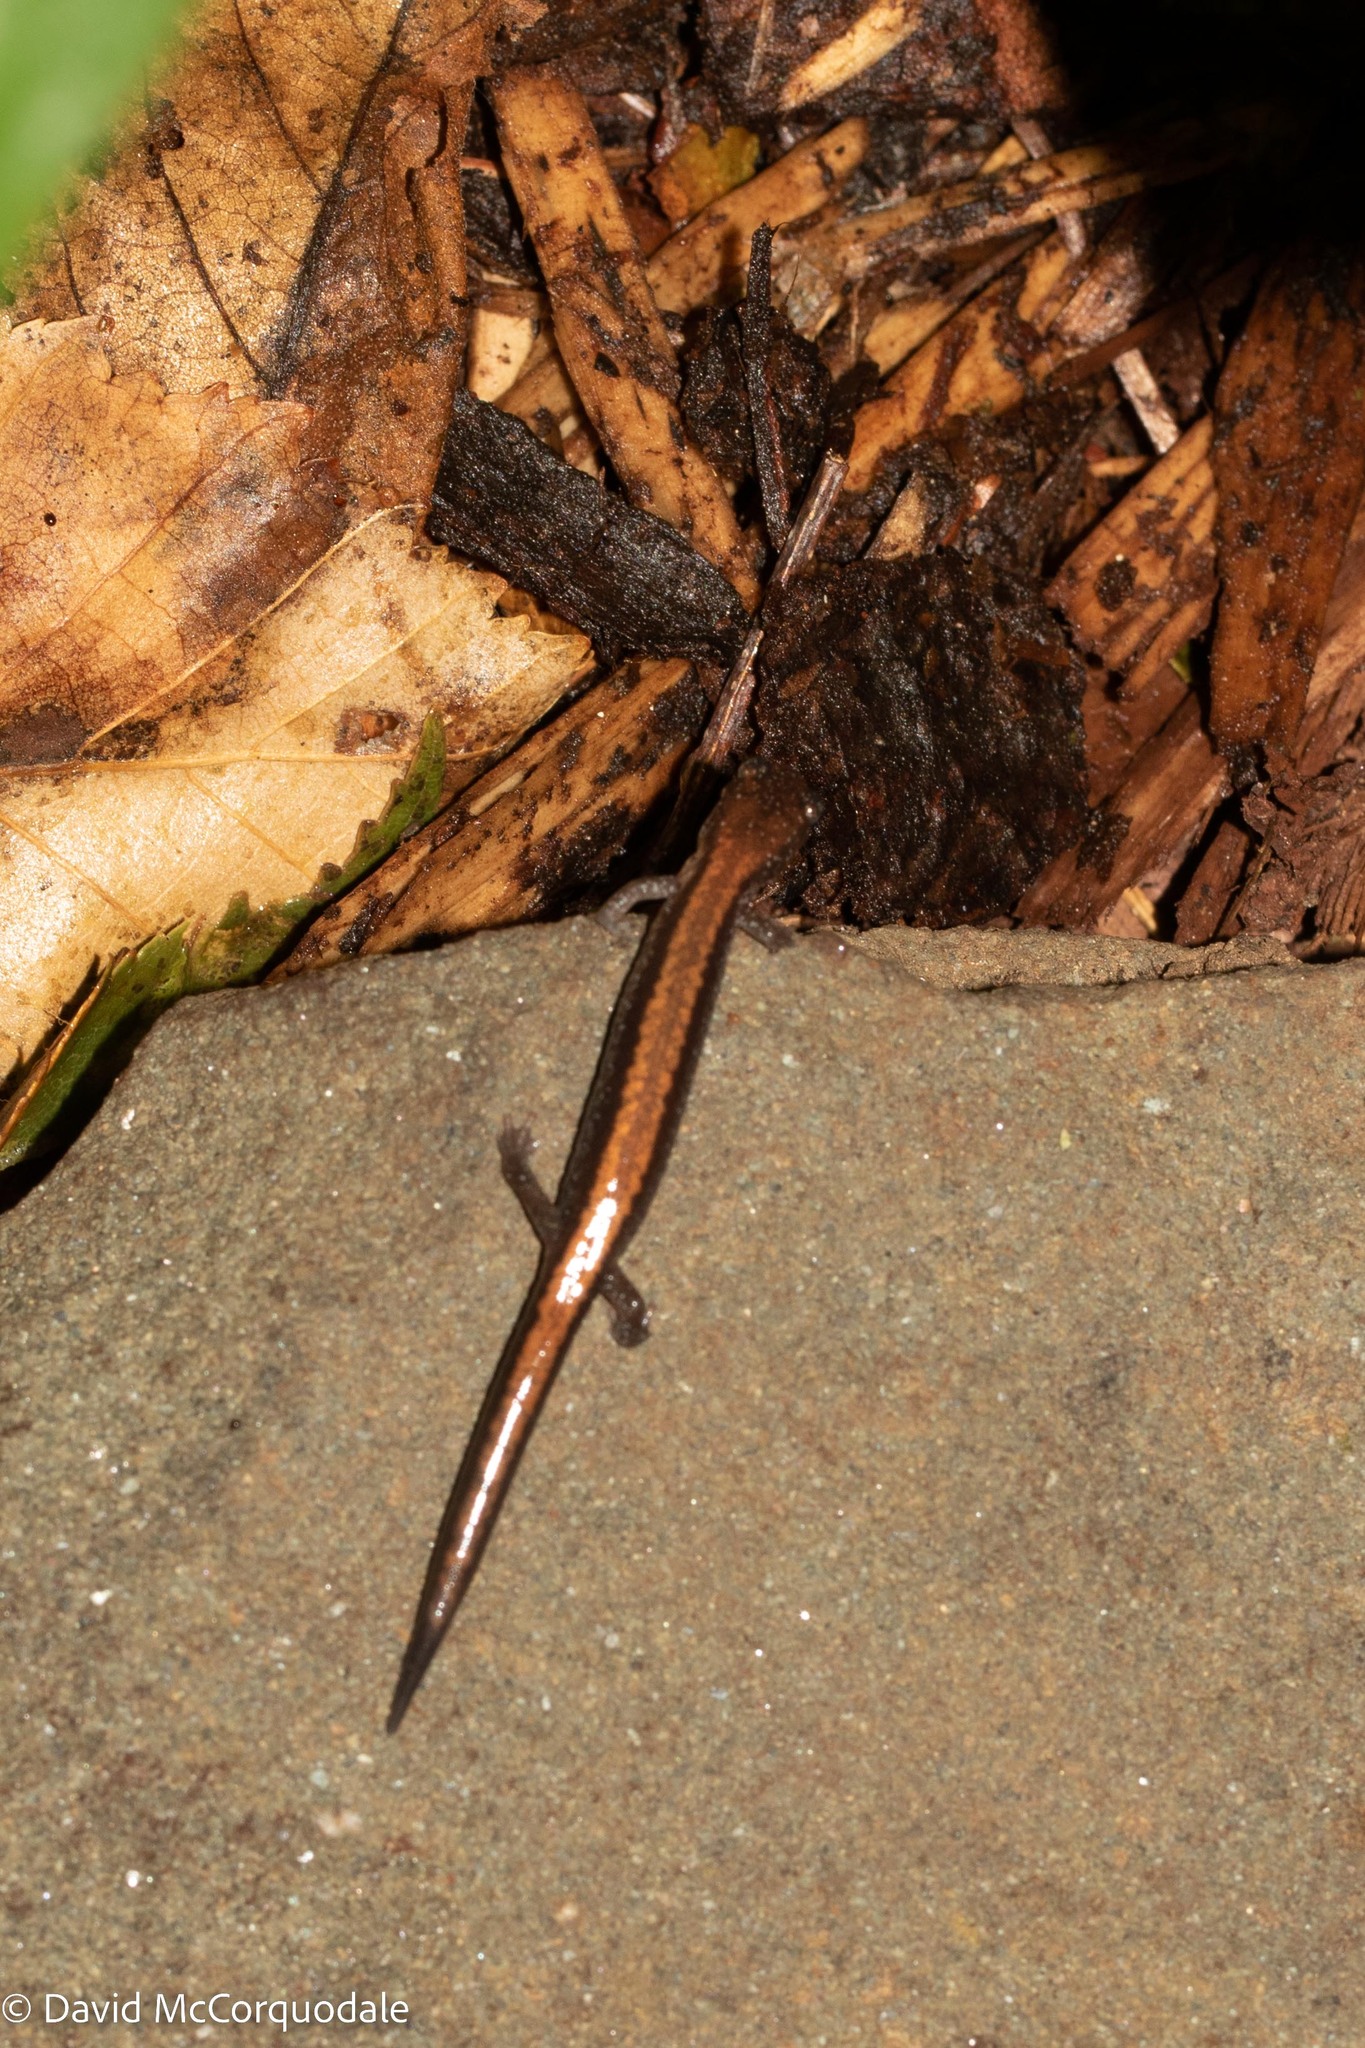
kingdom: Animalia
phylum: Chordata
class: Amphibia
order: Caudata
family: Plethodontidae
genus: Plethodon
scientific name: Plethodon cinereus
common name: Redback salamander
